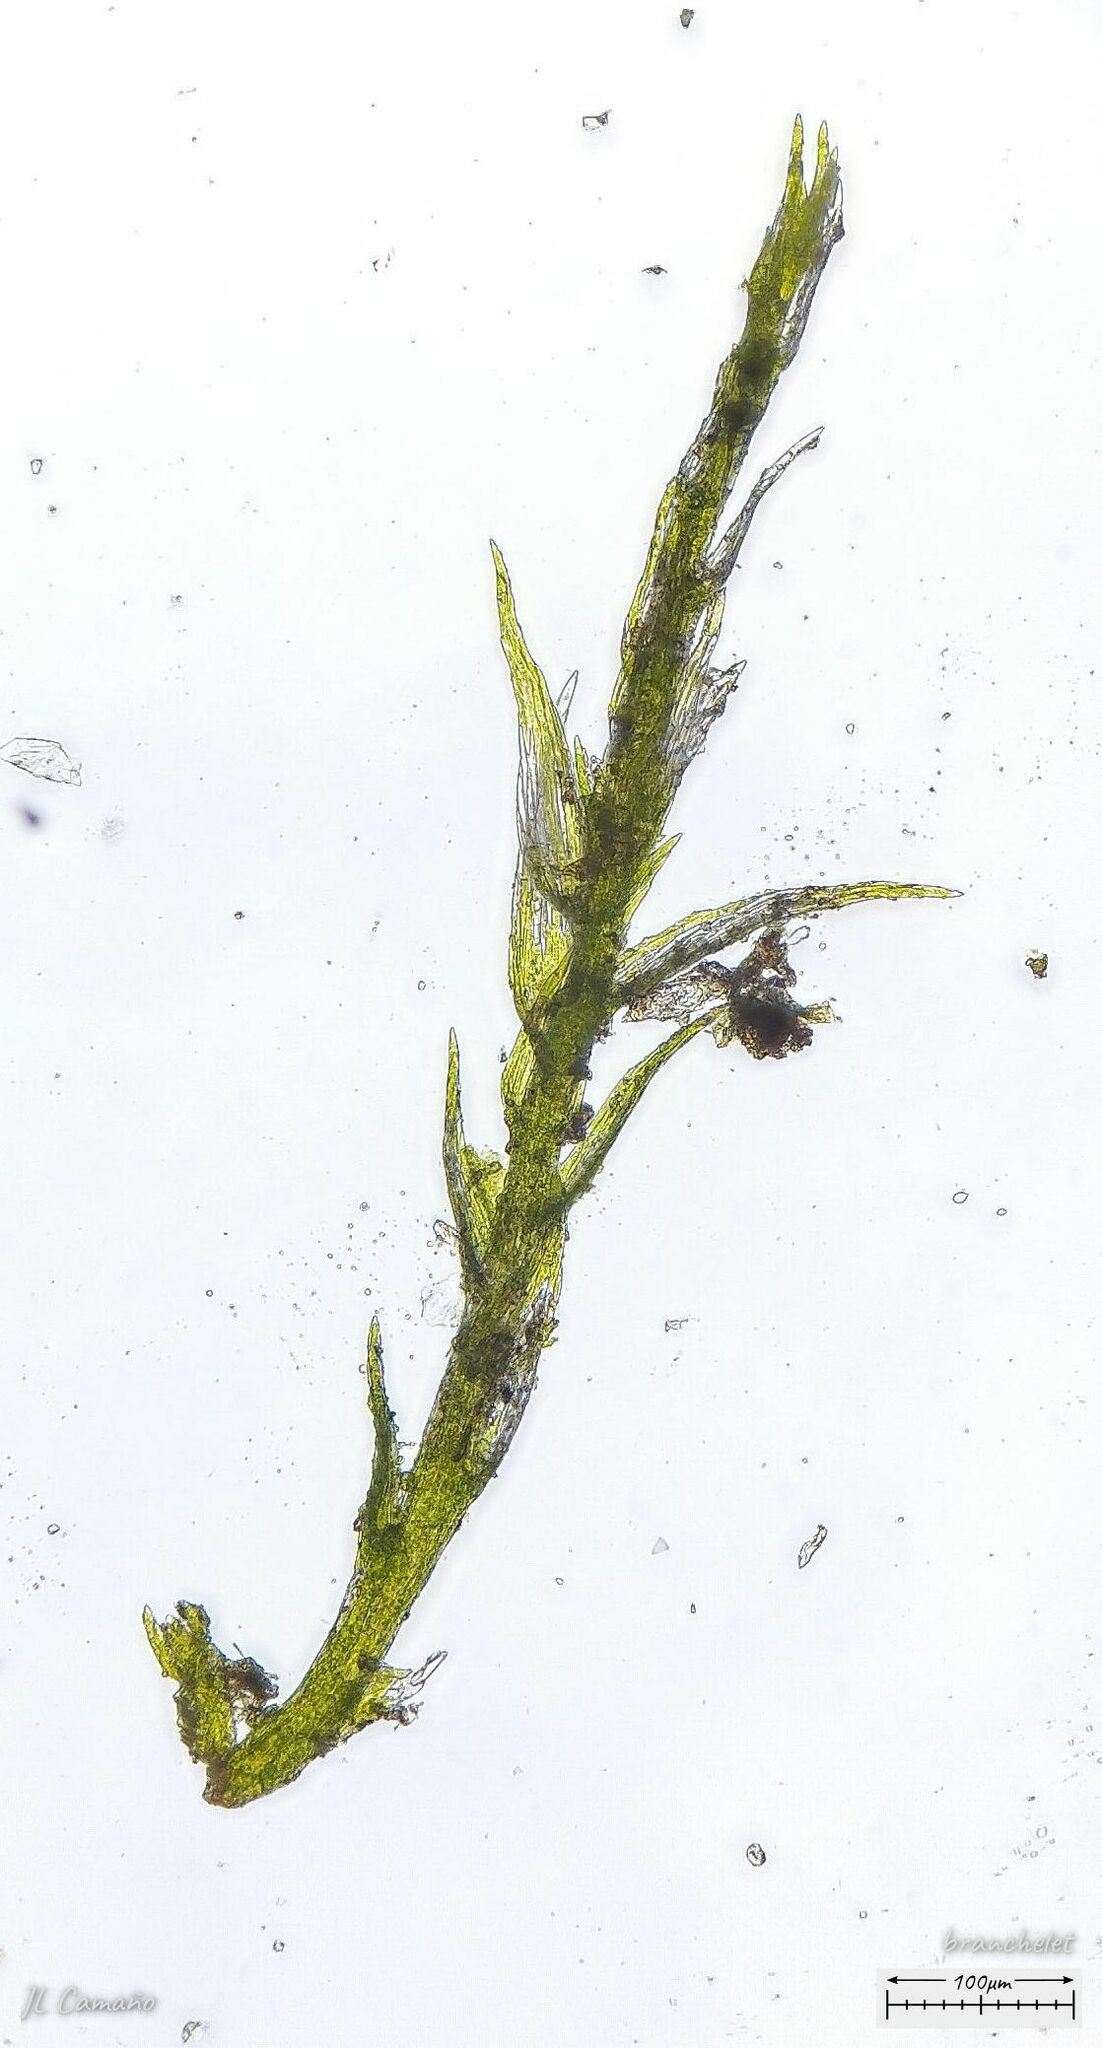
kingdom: Plantae
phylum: Bryophyta
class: Bryopsida
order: Hypnales
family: Plagiotheciaceae
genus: Pseudotaxiphyllum
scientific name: Pseudotaxiphyllum elegans
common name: Elegant silk moss
